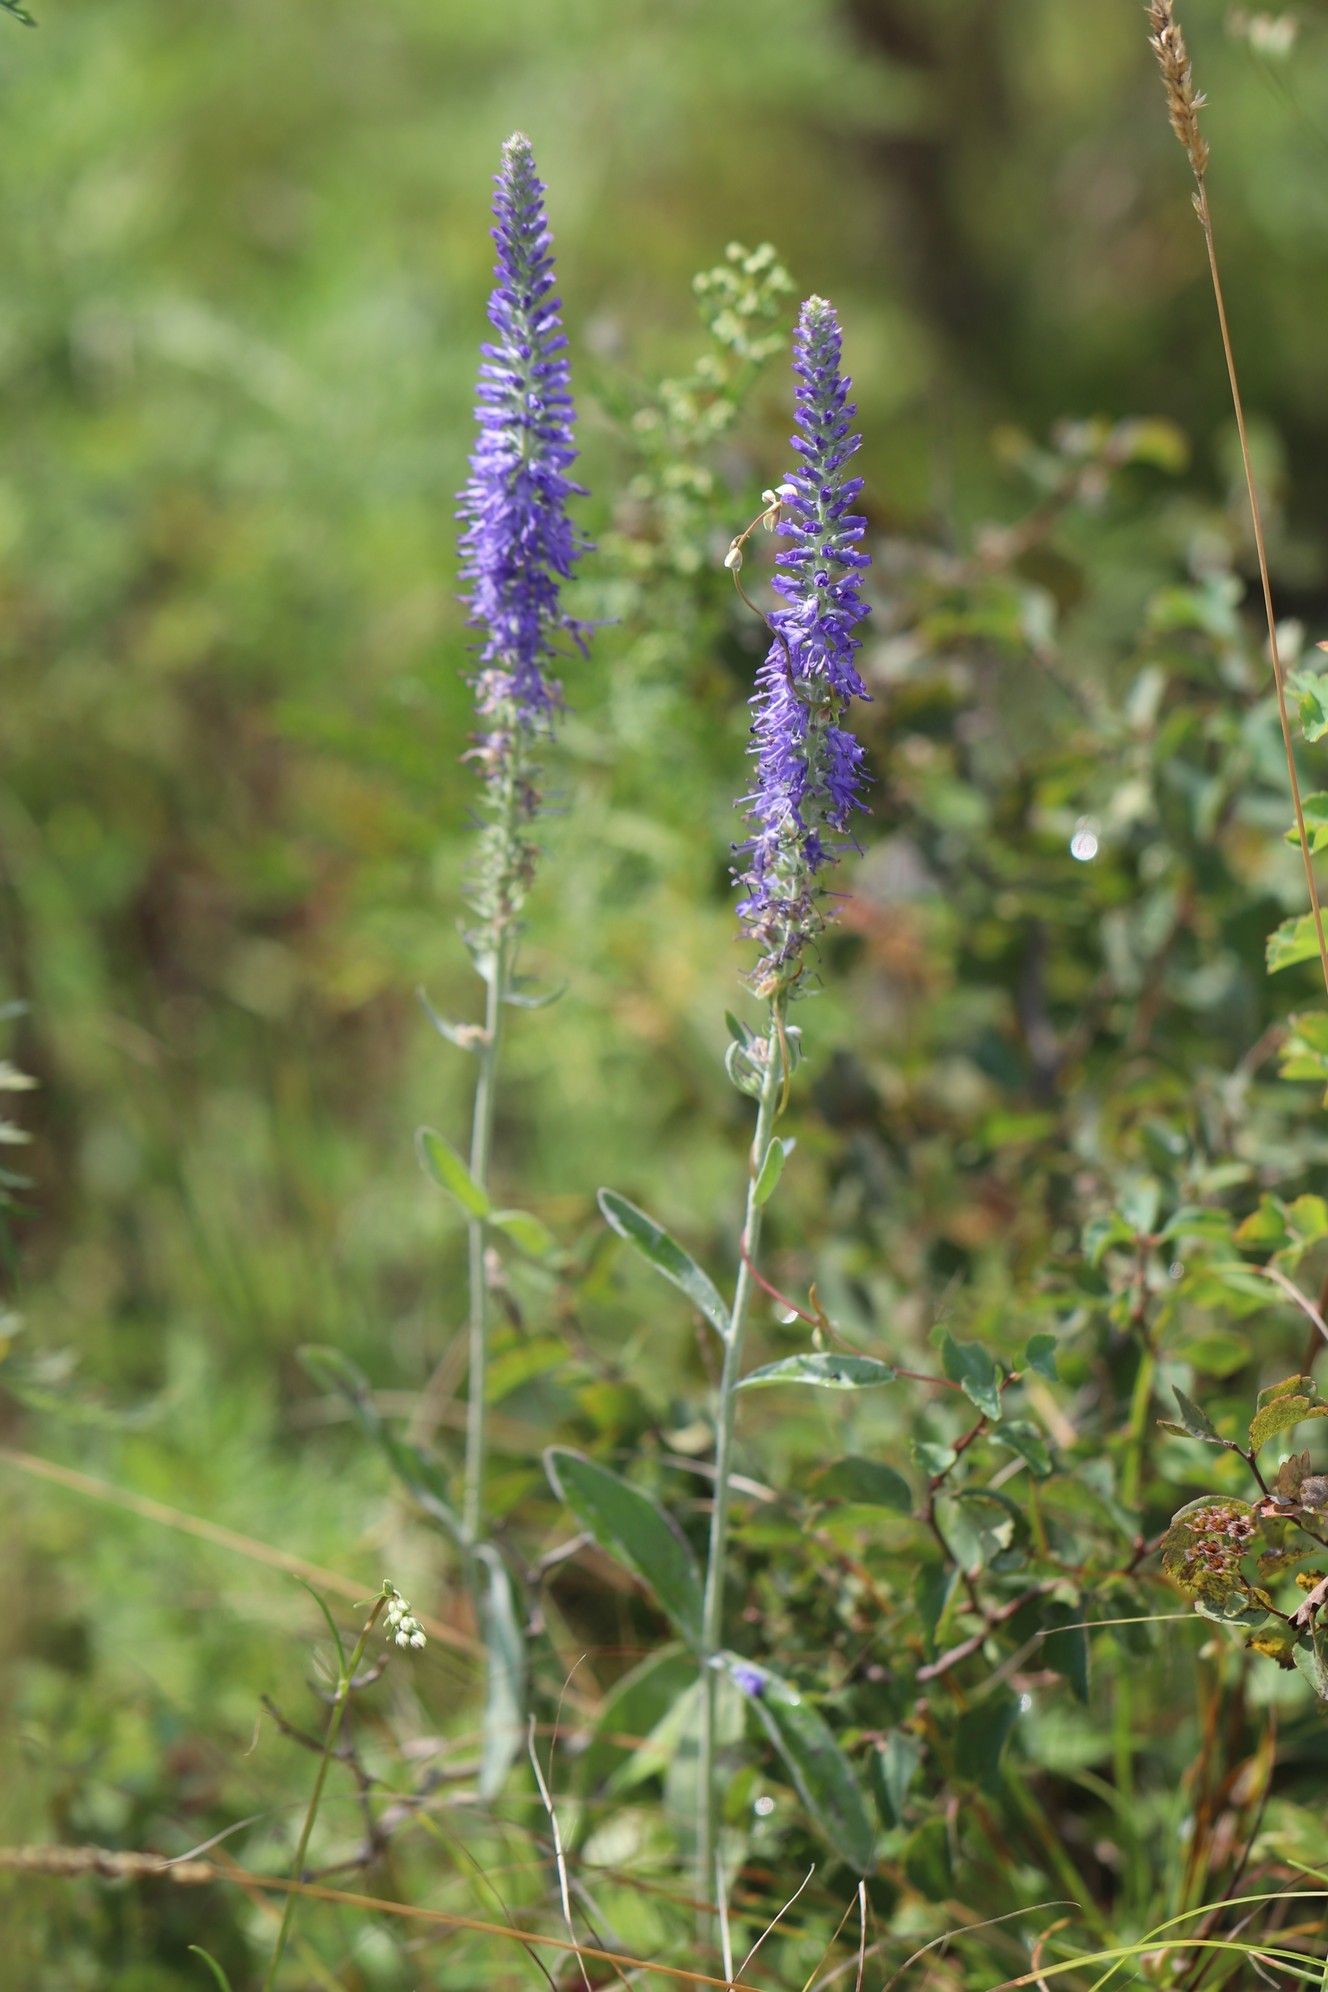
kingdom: Plantae
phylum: Tracheophyta
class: Magnoliopsida
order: Lamiales
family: Plantaginaceae
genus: Veronica
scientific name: Veronica incana
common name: Silver speedwell
